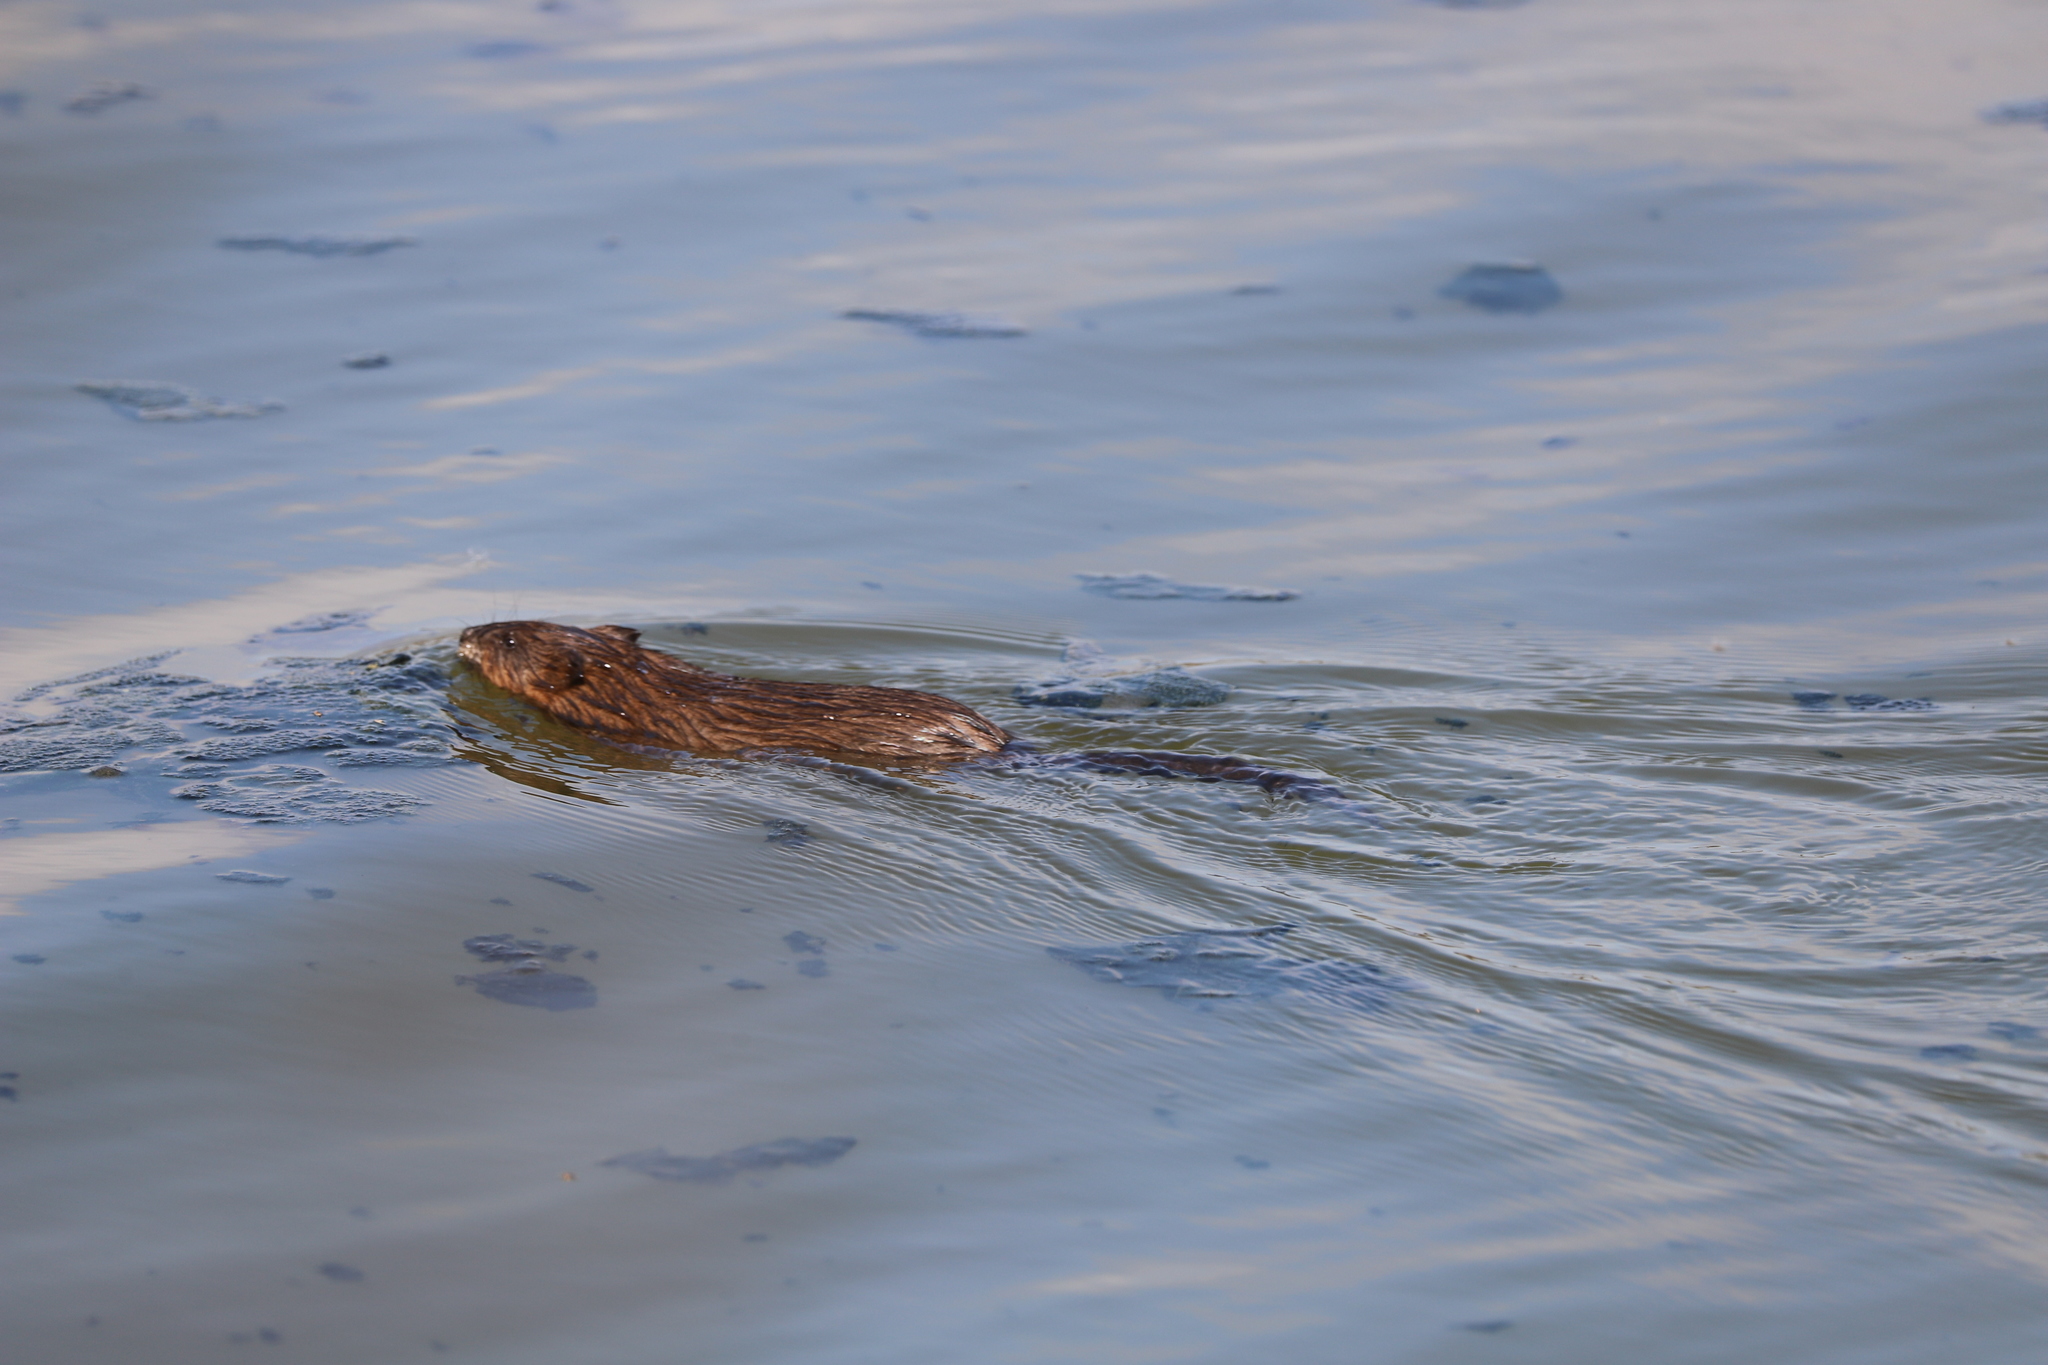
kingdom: Animalia
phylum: Chordata
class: Mammalia
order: Rodentia
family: Cricetidae
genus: Ondatra
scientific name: Ondatra zibethicus
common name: Muskrat
